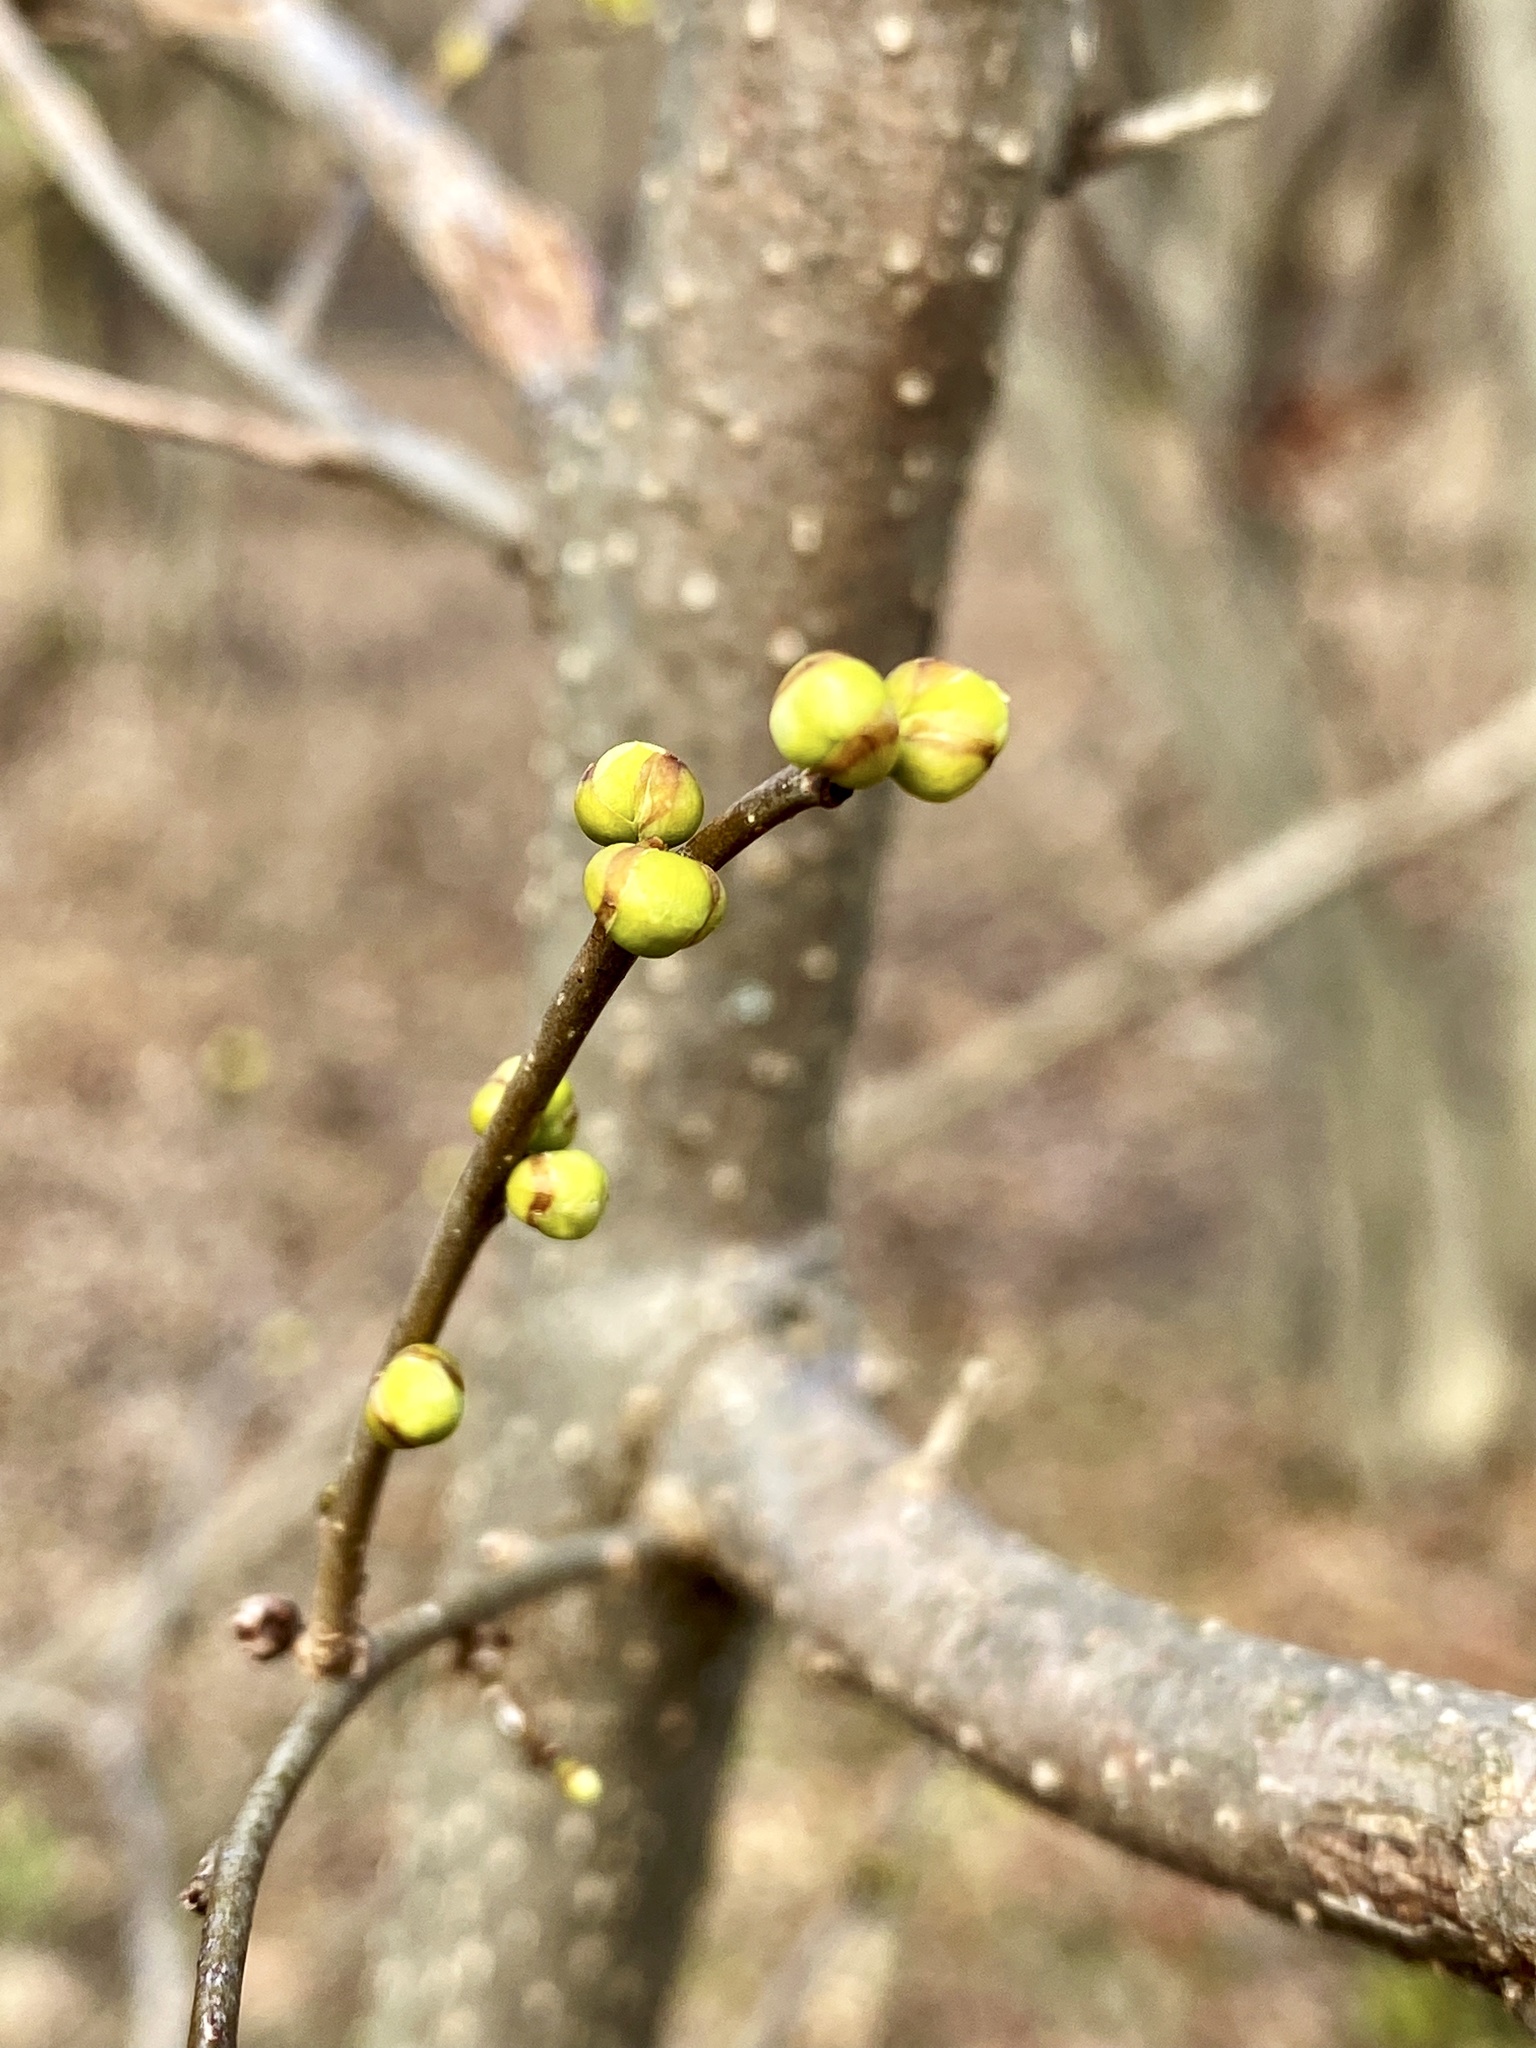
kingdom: Plantae
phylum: Tracheophyta
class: Magnoliopsida
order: Laurales
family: Lauraceae
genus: Lindera
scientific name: Lindera benzoin
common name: Spicebush
